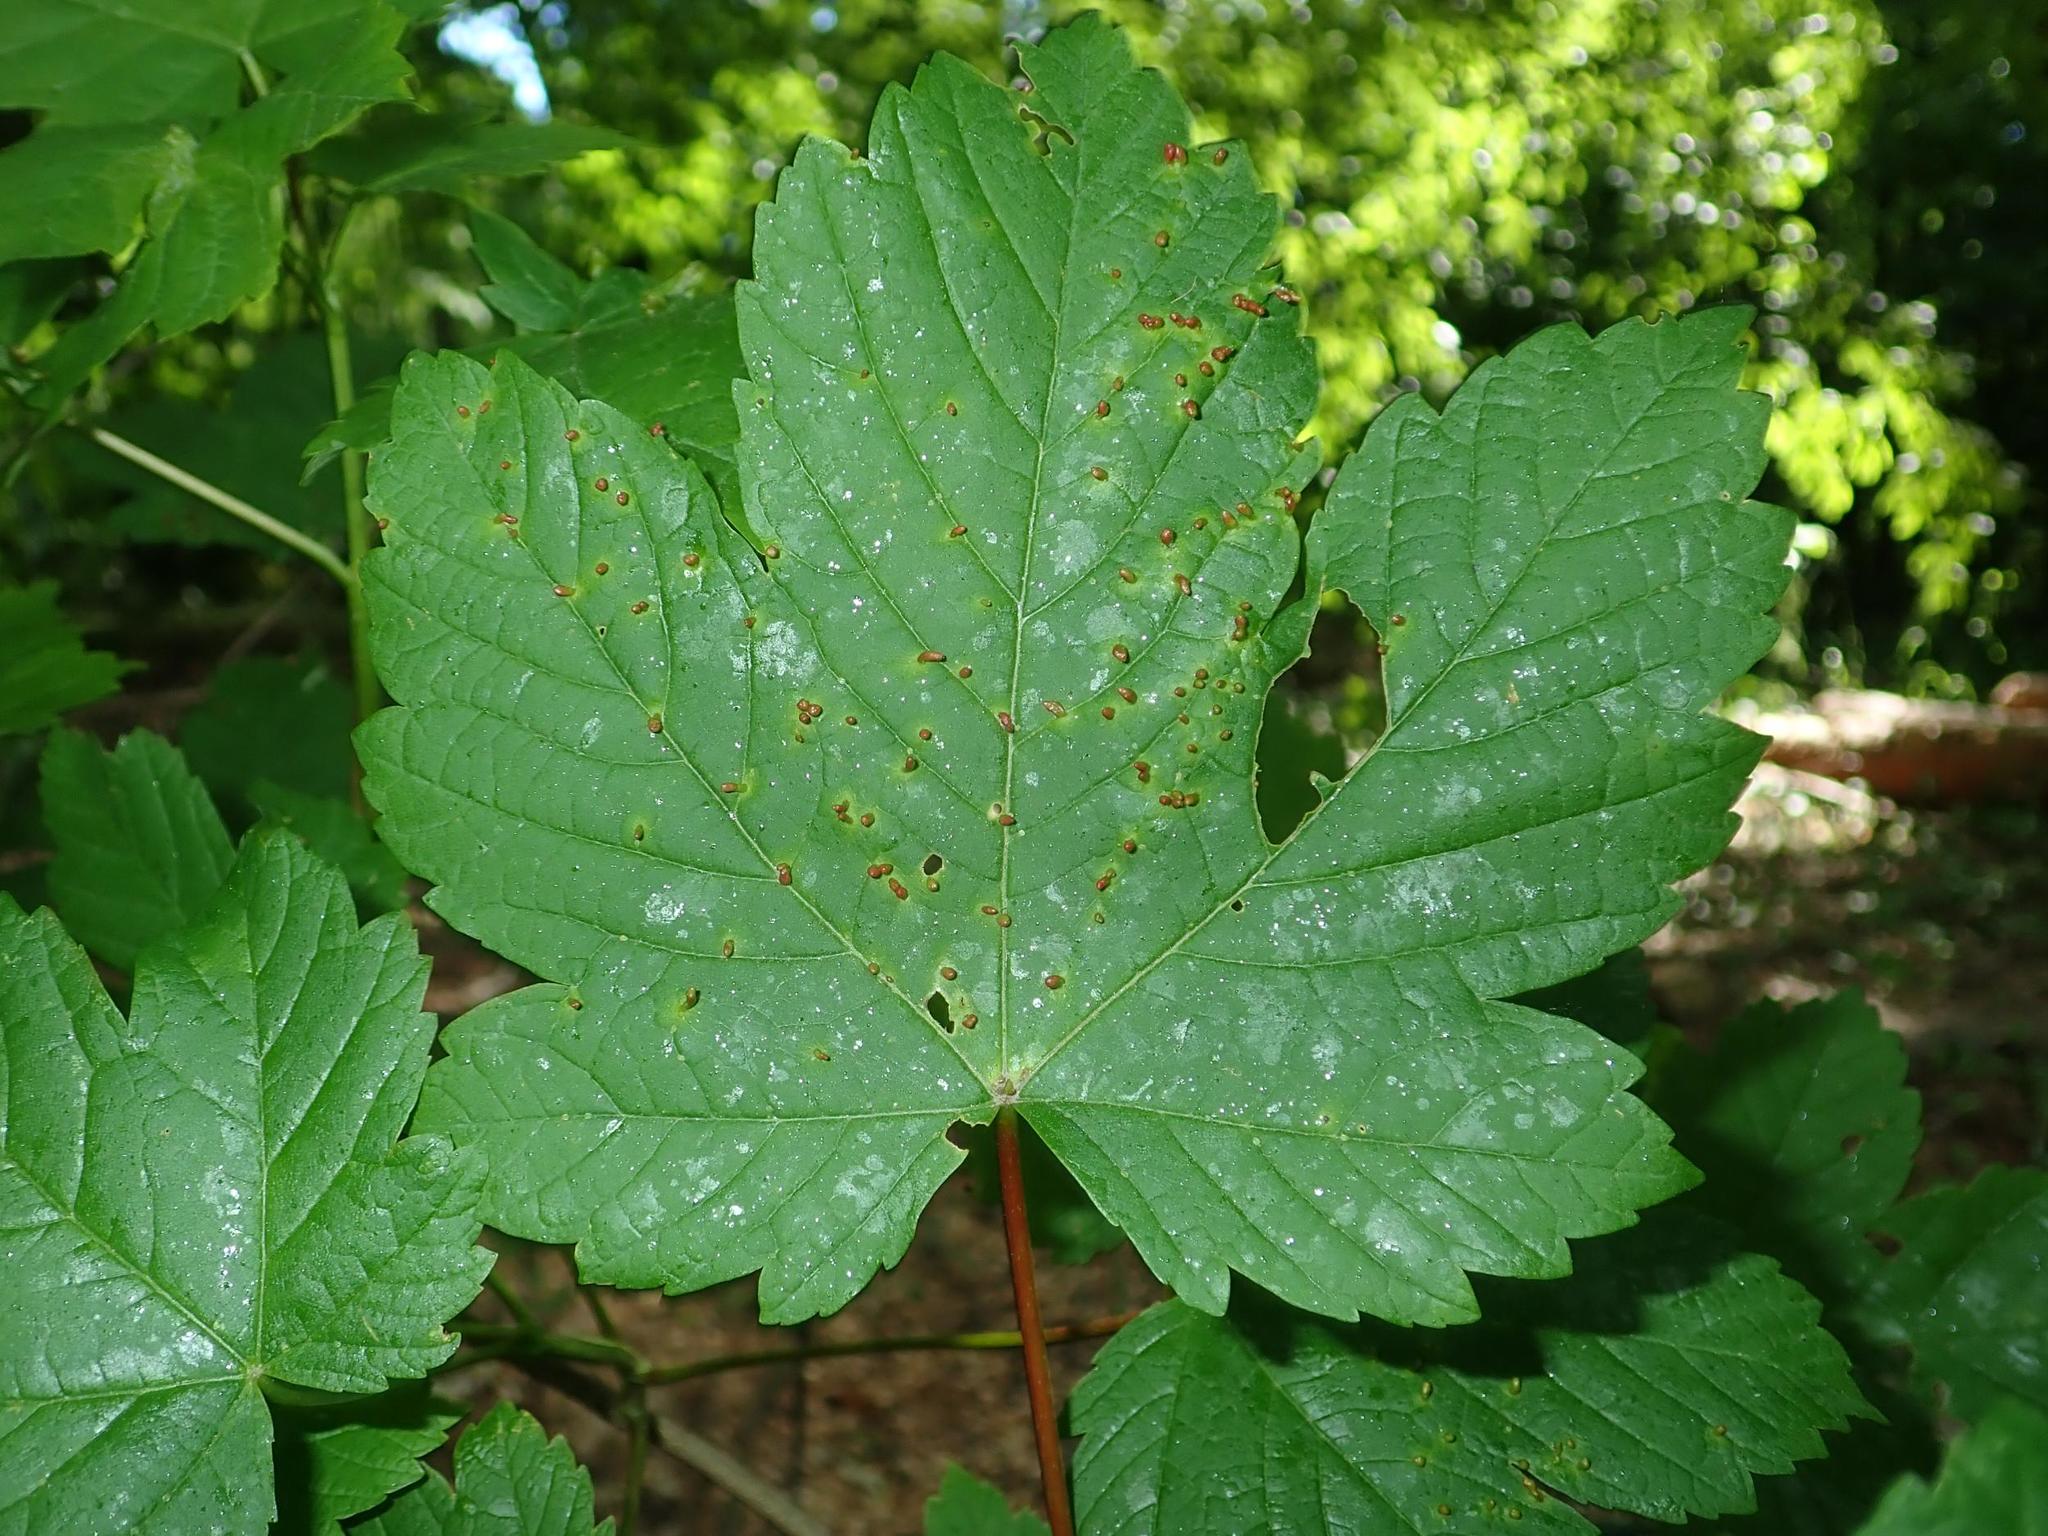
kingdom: Plantae
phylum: Tracheophyta
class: Magnoliopsida
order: Sapindales
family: Sapindaceae
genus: Acer
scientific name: Acer pseudoplatanus
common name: Sycamore
